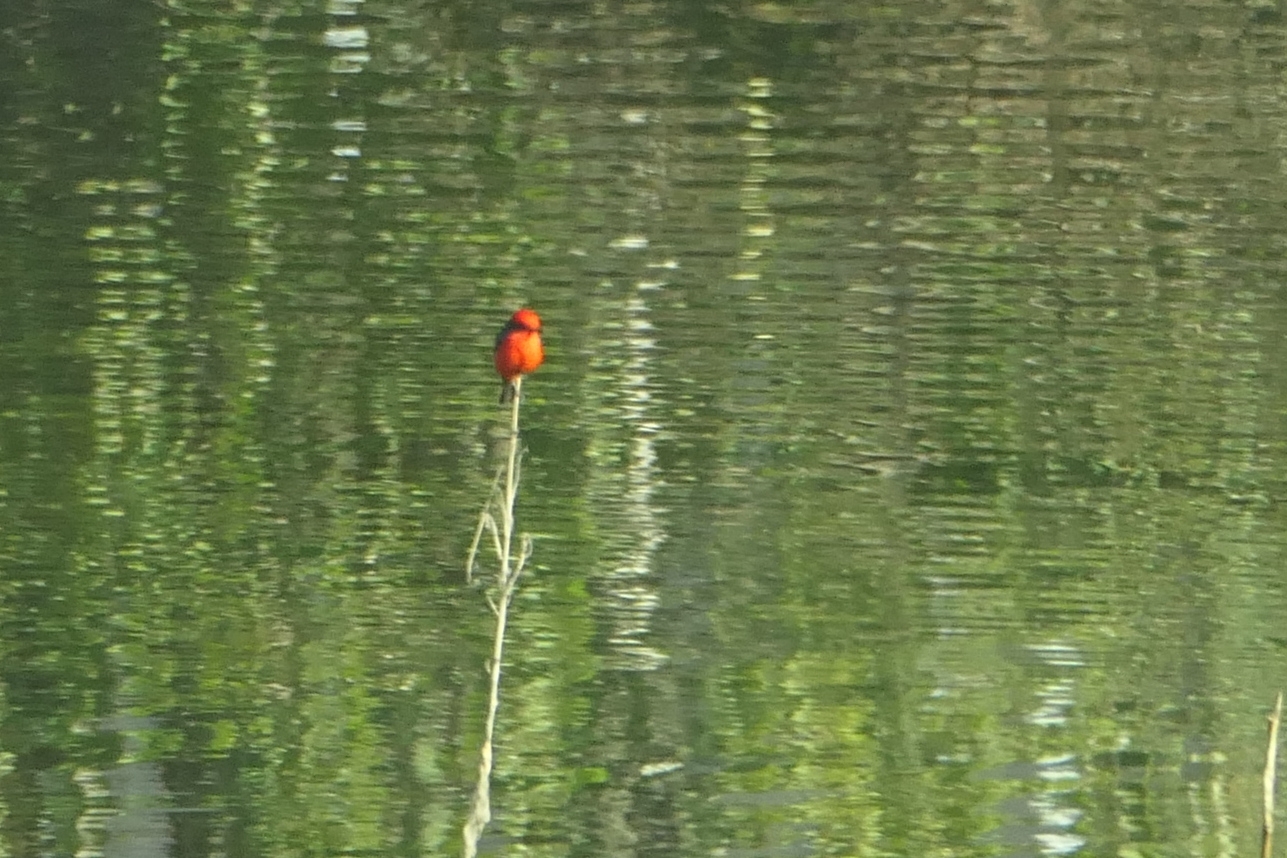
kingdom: Animalia
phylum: Chordata
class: Aves
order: Passeriformes
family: Tyrannidae
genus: Pyrocephalus
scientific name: Pyrocephalus rubinus
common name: Vermilion flycatcher
